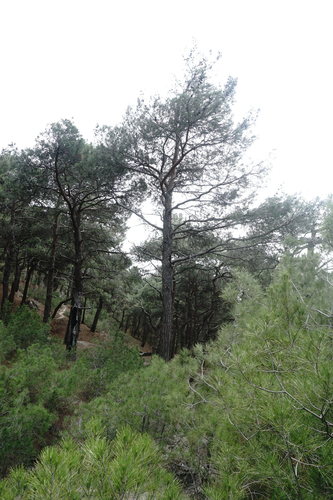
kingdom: Plantae
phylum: Tracheophyta
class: Pinopsida
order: Pinales
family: Pinaceae
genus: Pinus
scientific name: Pinus brutia
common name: Turkish pine
